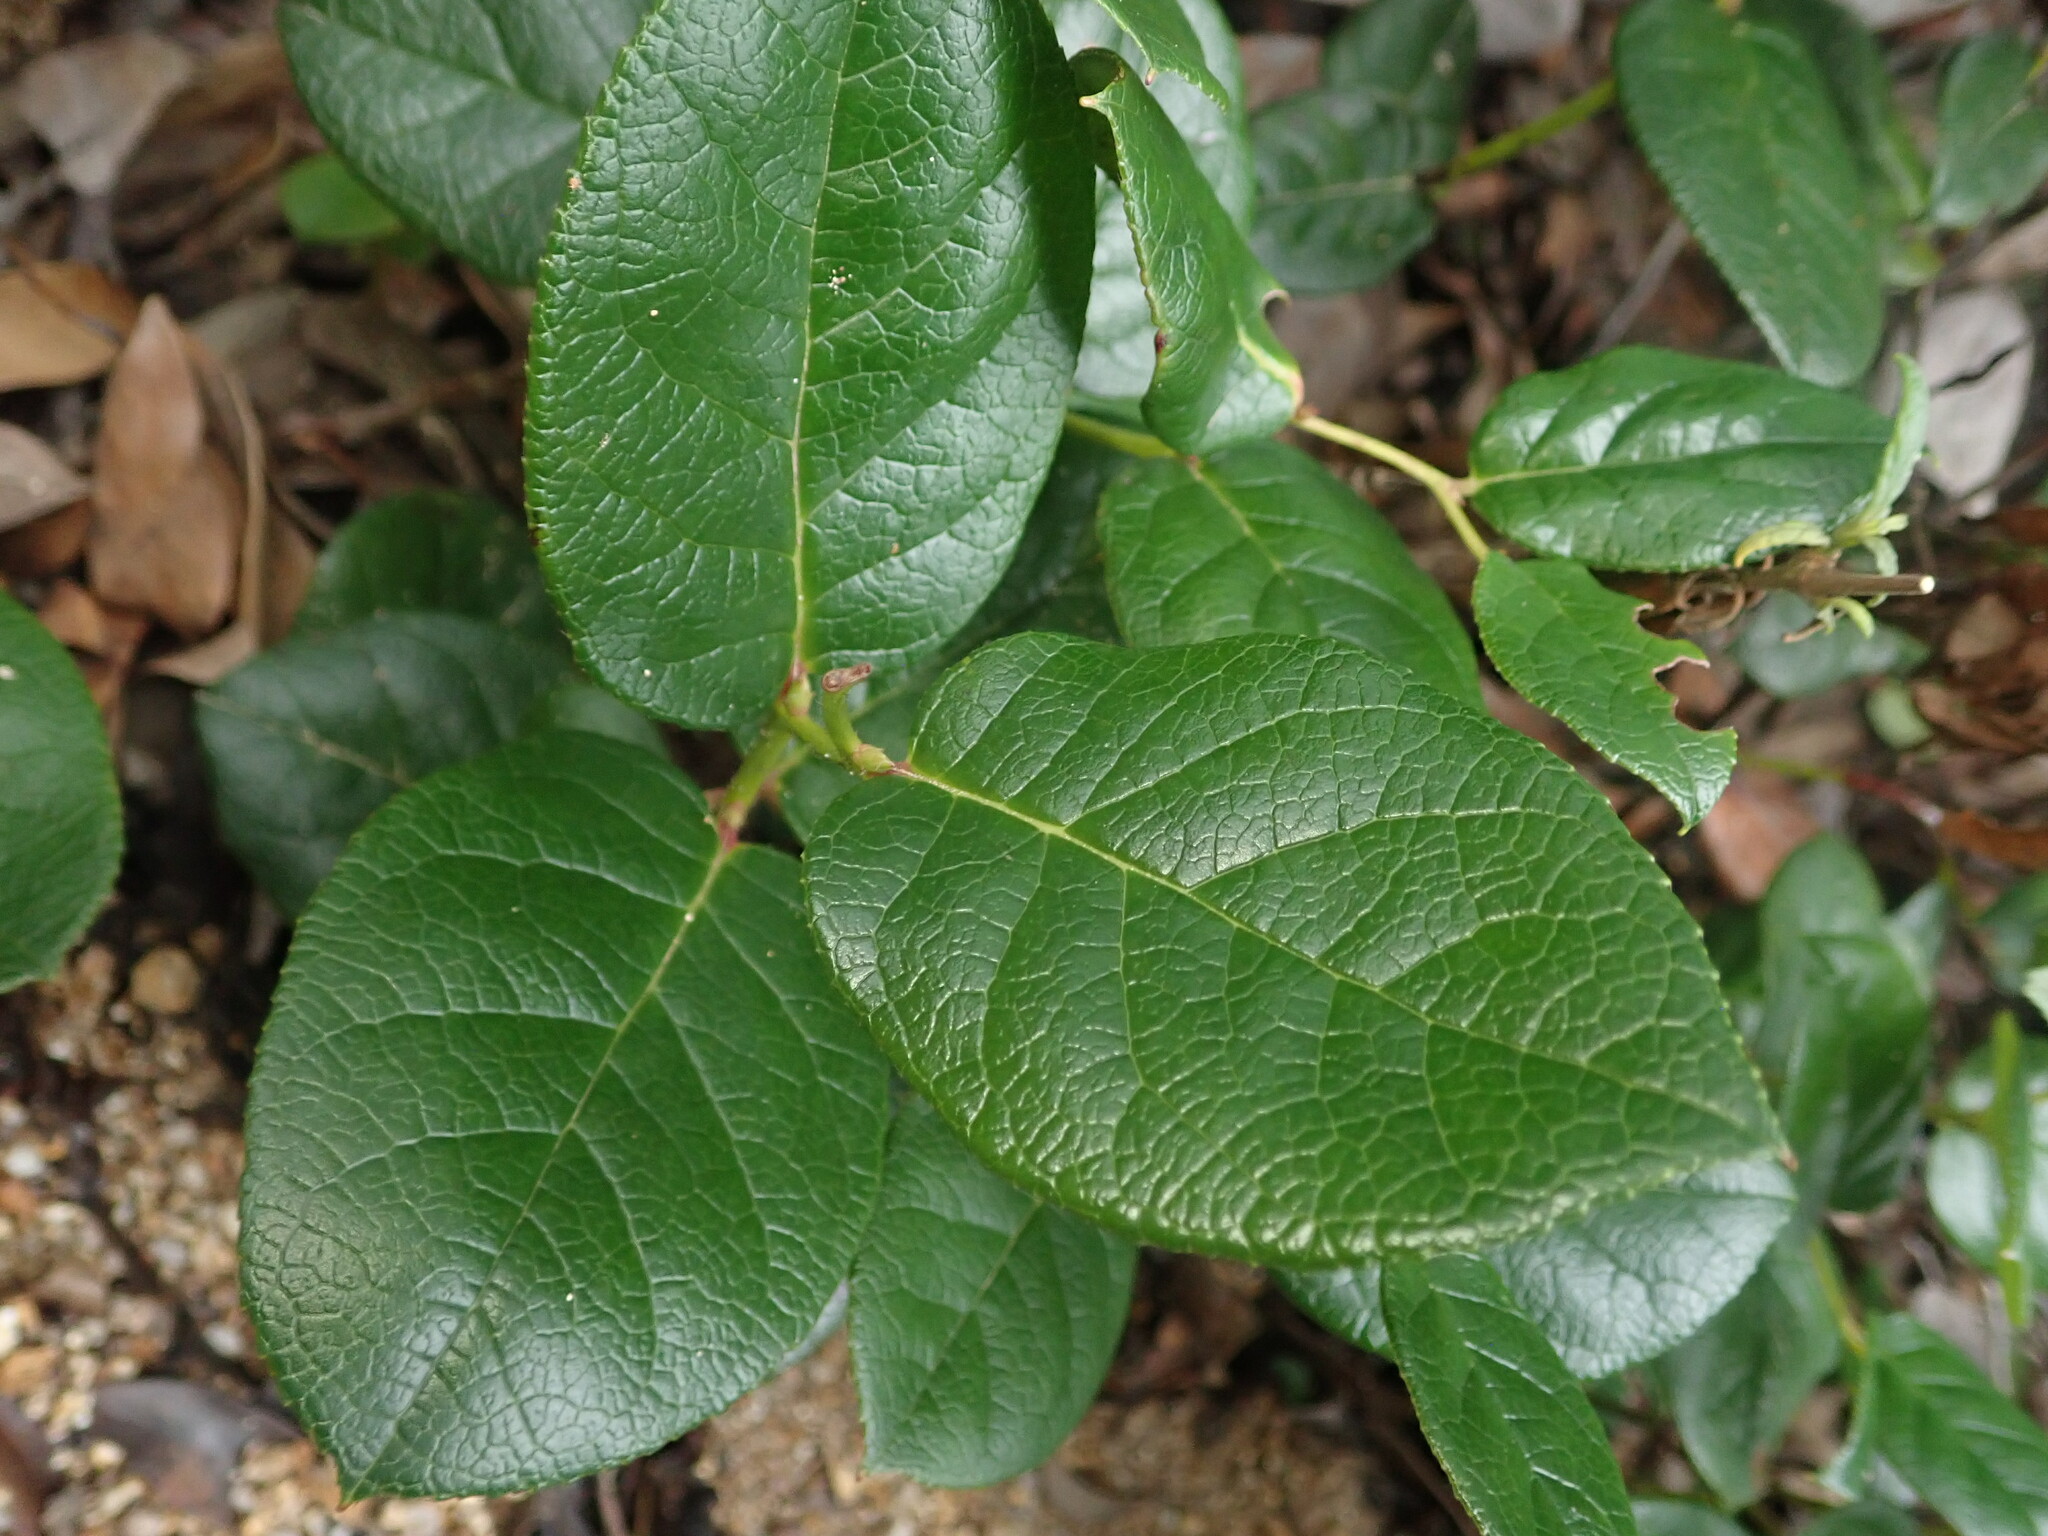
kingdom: Plantae
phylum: Tracheophyta
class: Magnoliopsida
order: Ericales
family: Ericaceae
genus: Gaultheria
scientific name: Gaultheria shallon
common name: Shallon
